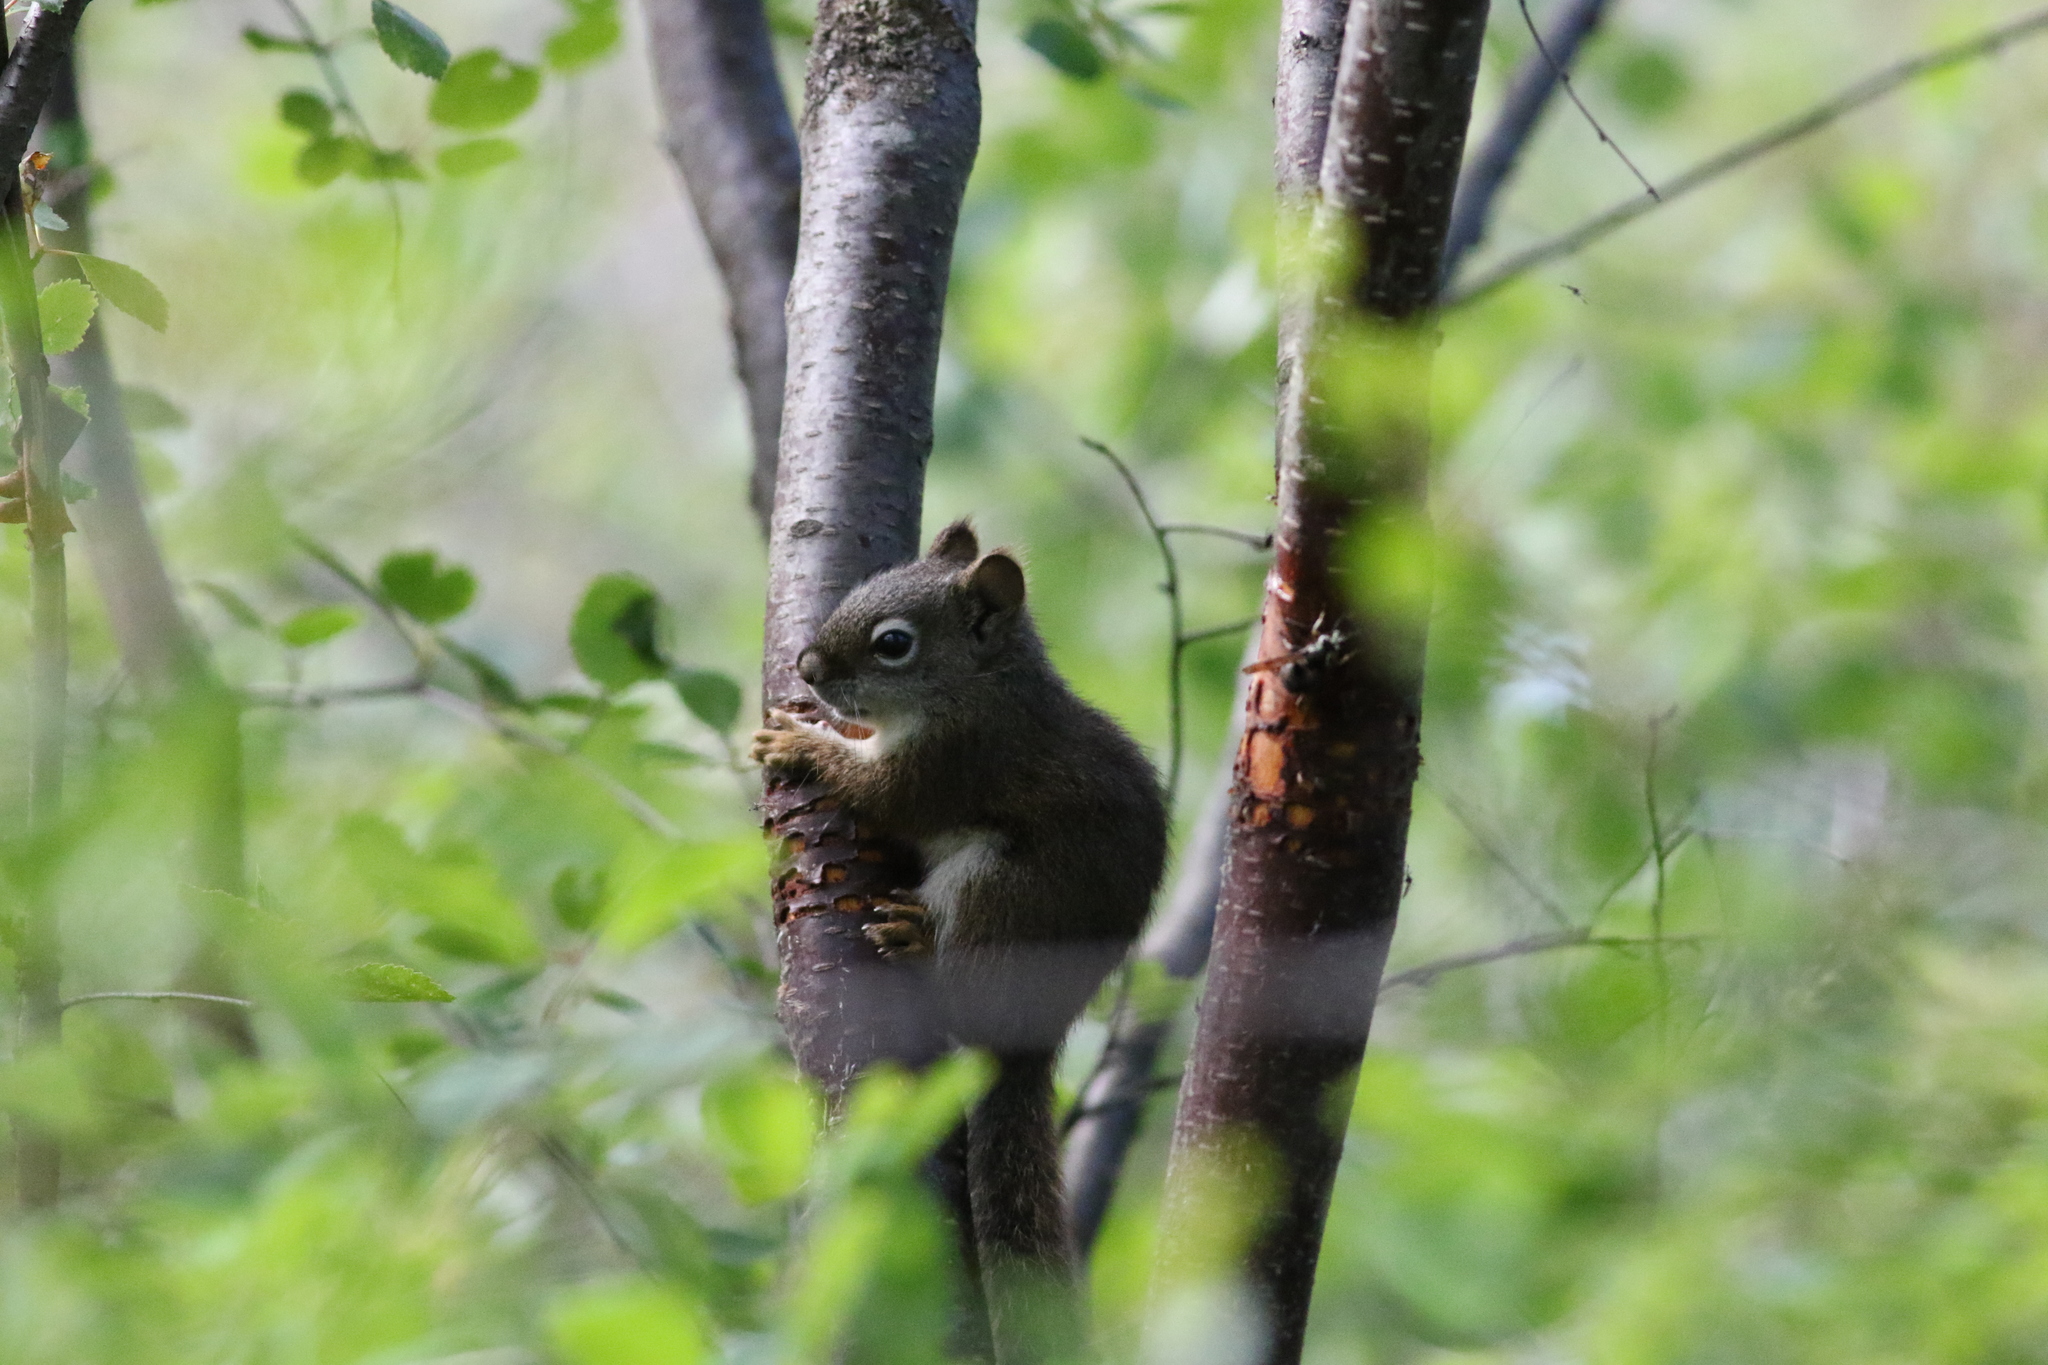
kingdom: Animalia
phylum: Chordata
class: Mammalia
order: Rodentia
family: Sciuridae
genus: Tamiasciurus
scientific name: Tamiasciurus hudsonicus
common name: Red squirrel
